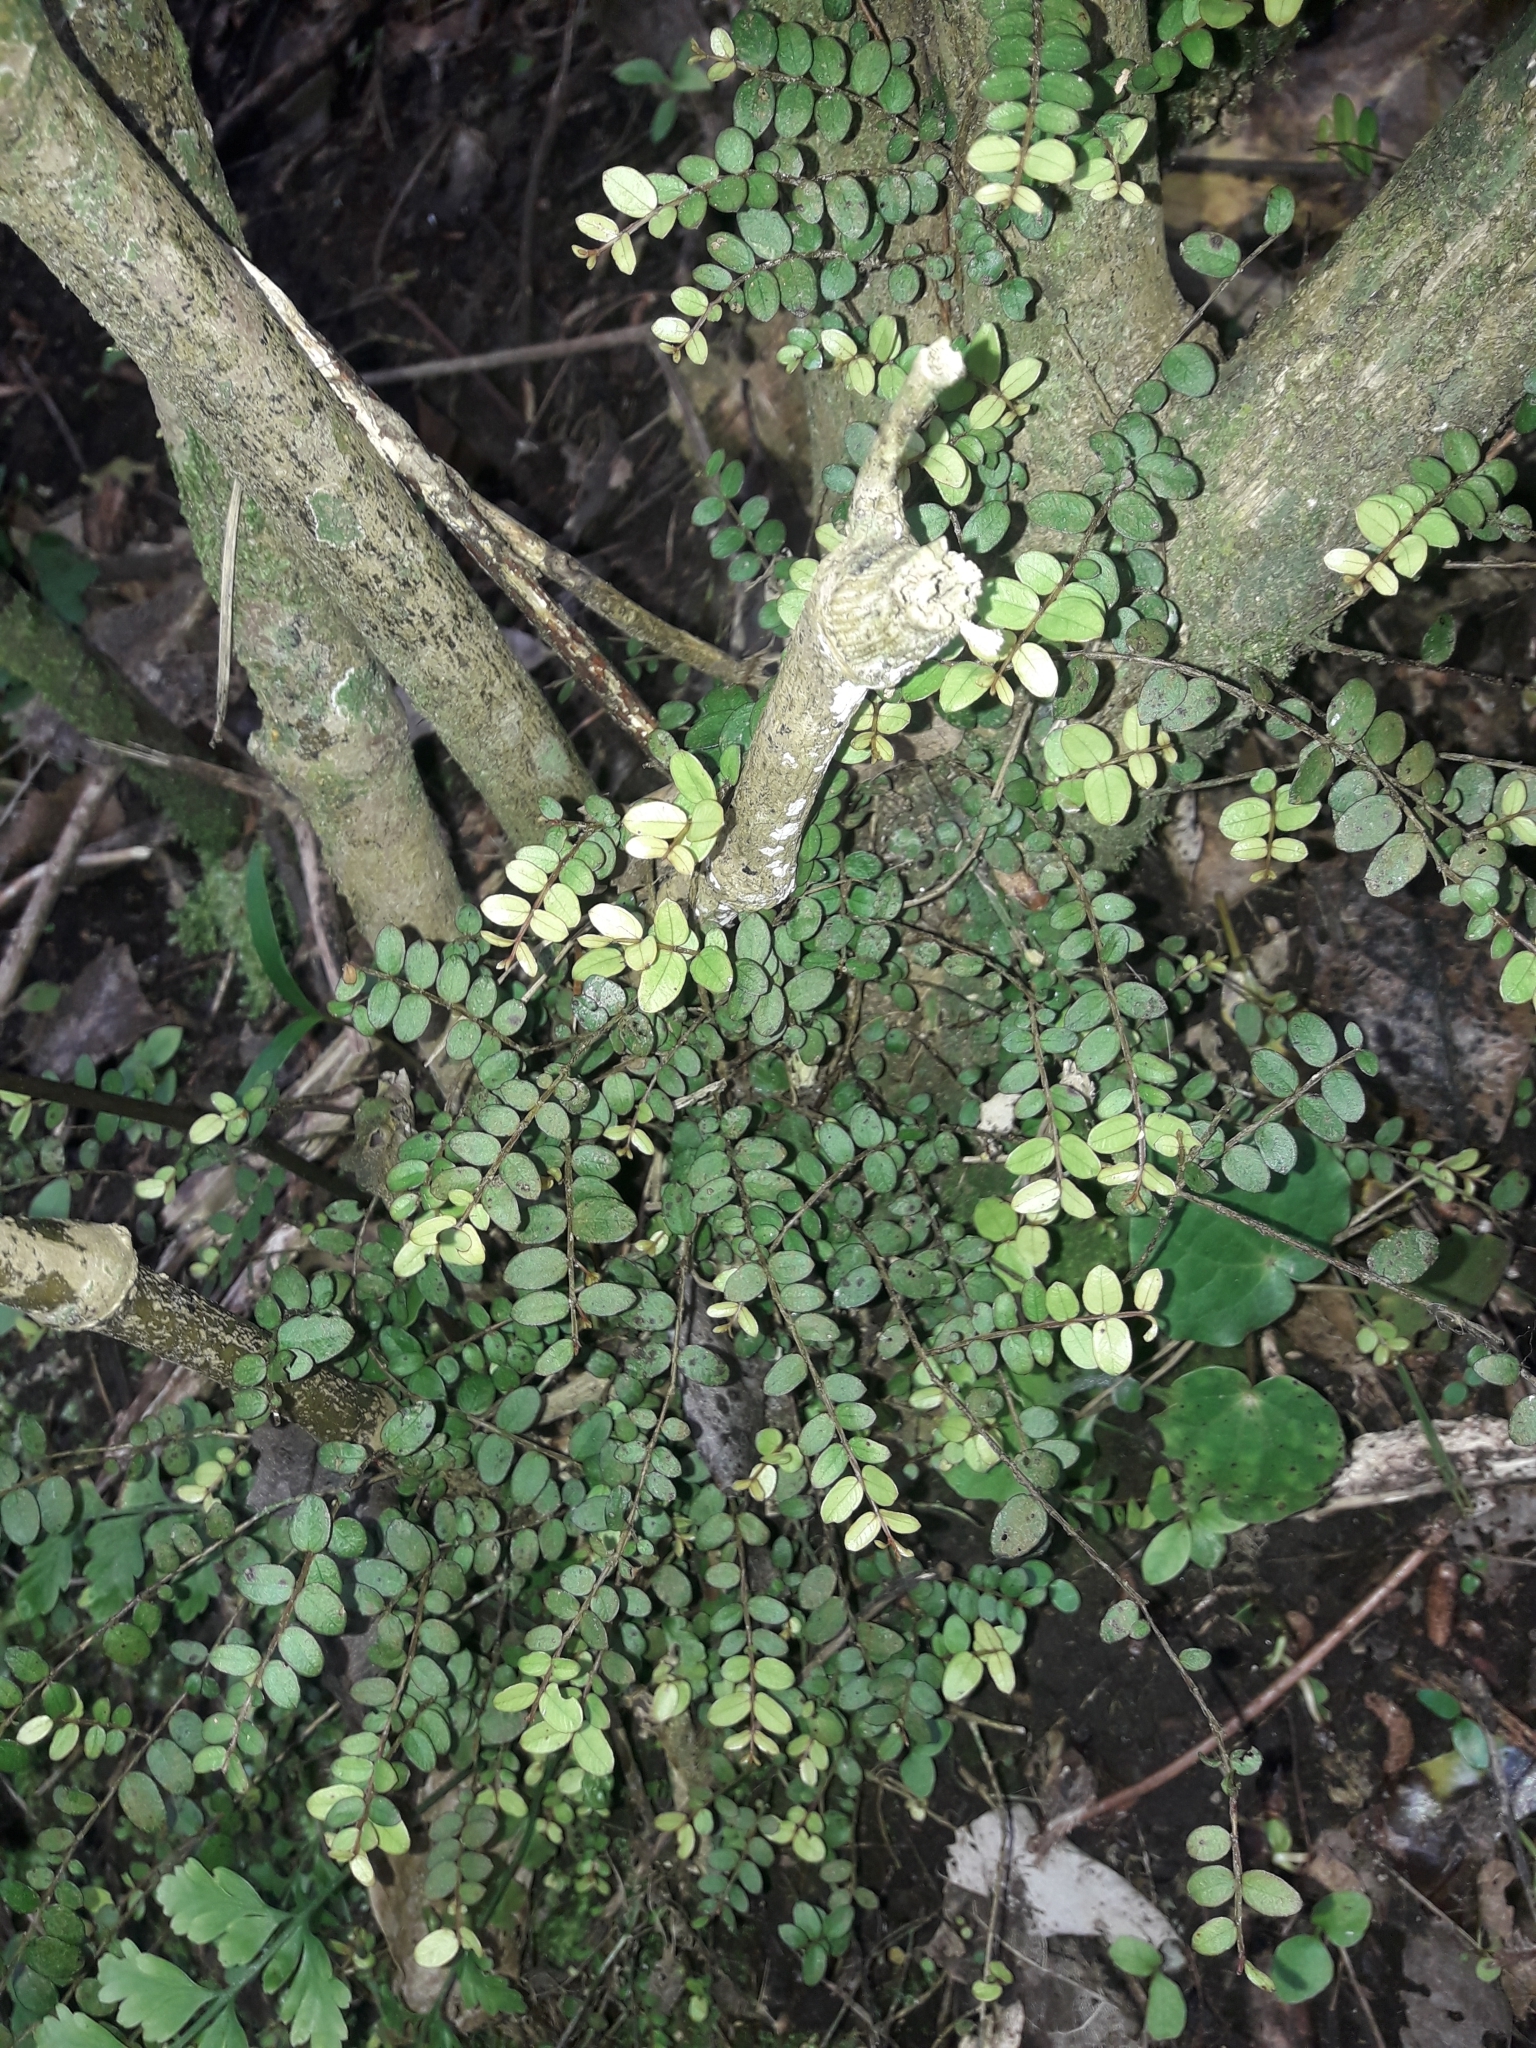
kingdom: Plantae
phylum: Tracheophyta
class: Magnoliopsida
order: Myrtales
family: Myrtaceae
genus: Metrosideros
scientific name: Metrosideros diffusa
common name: Small ratavine
